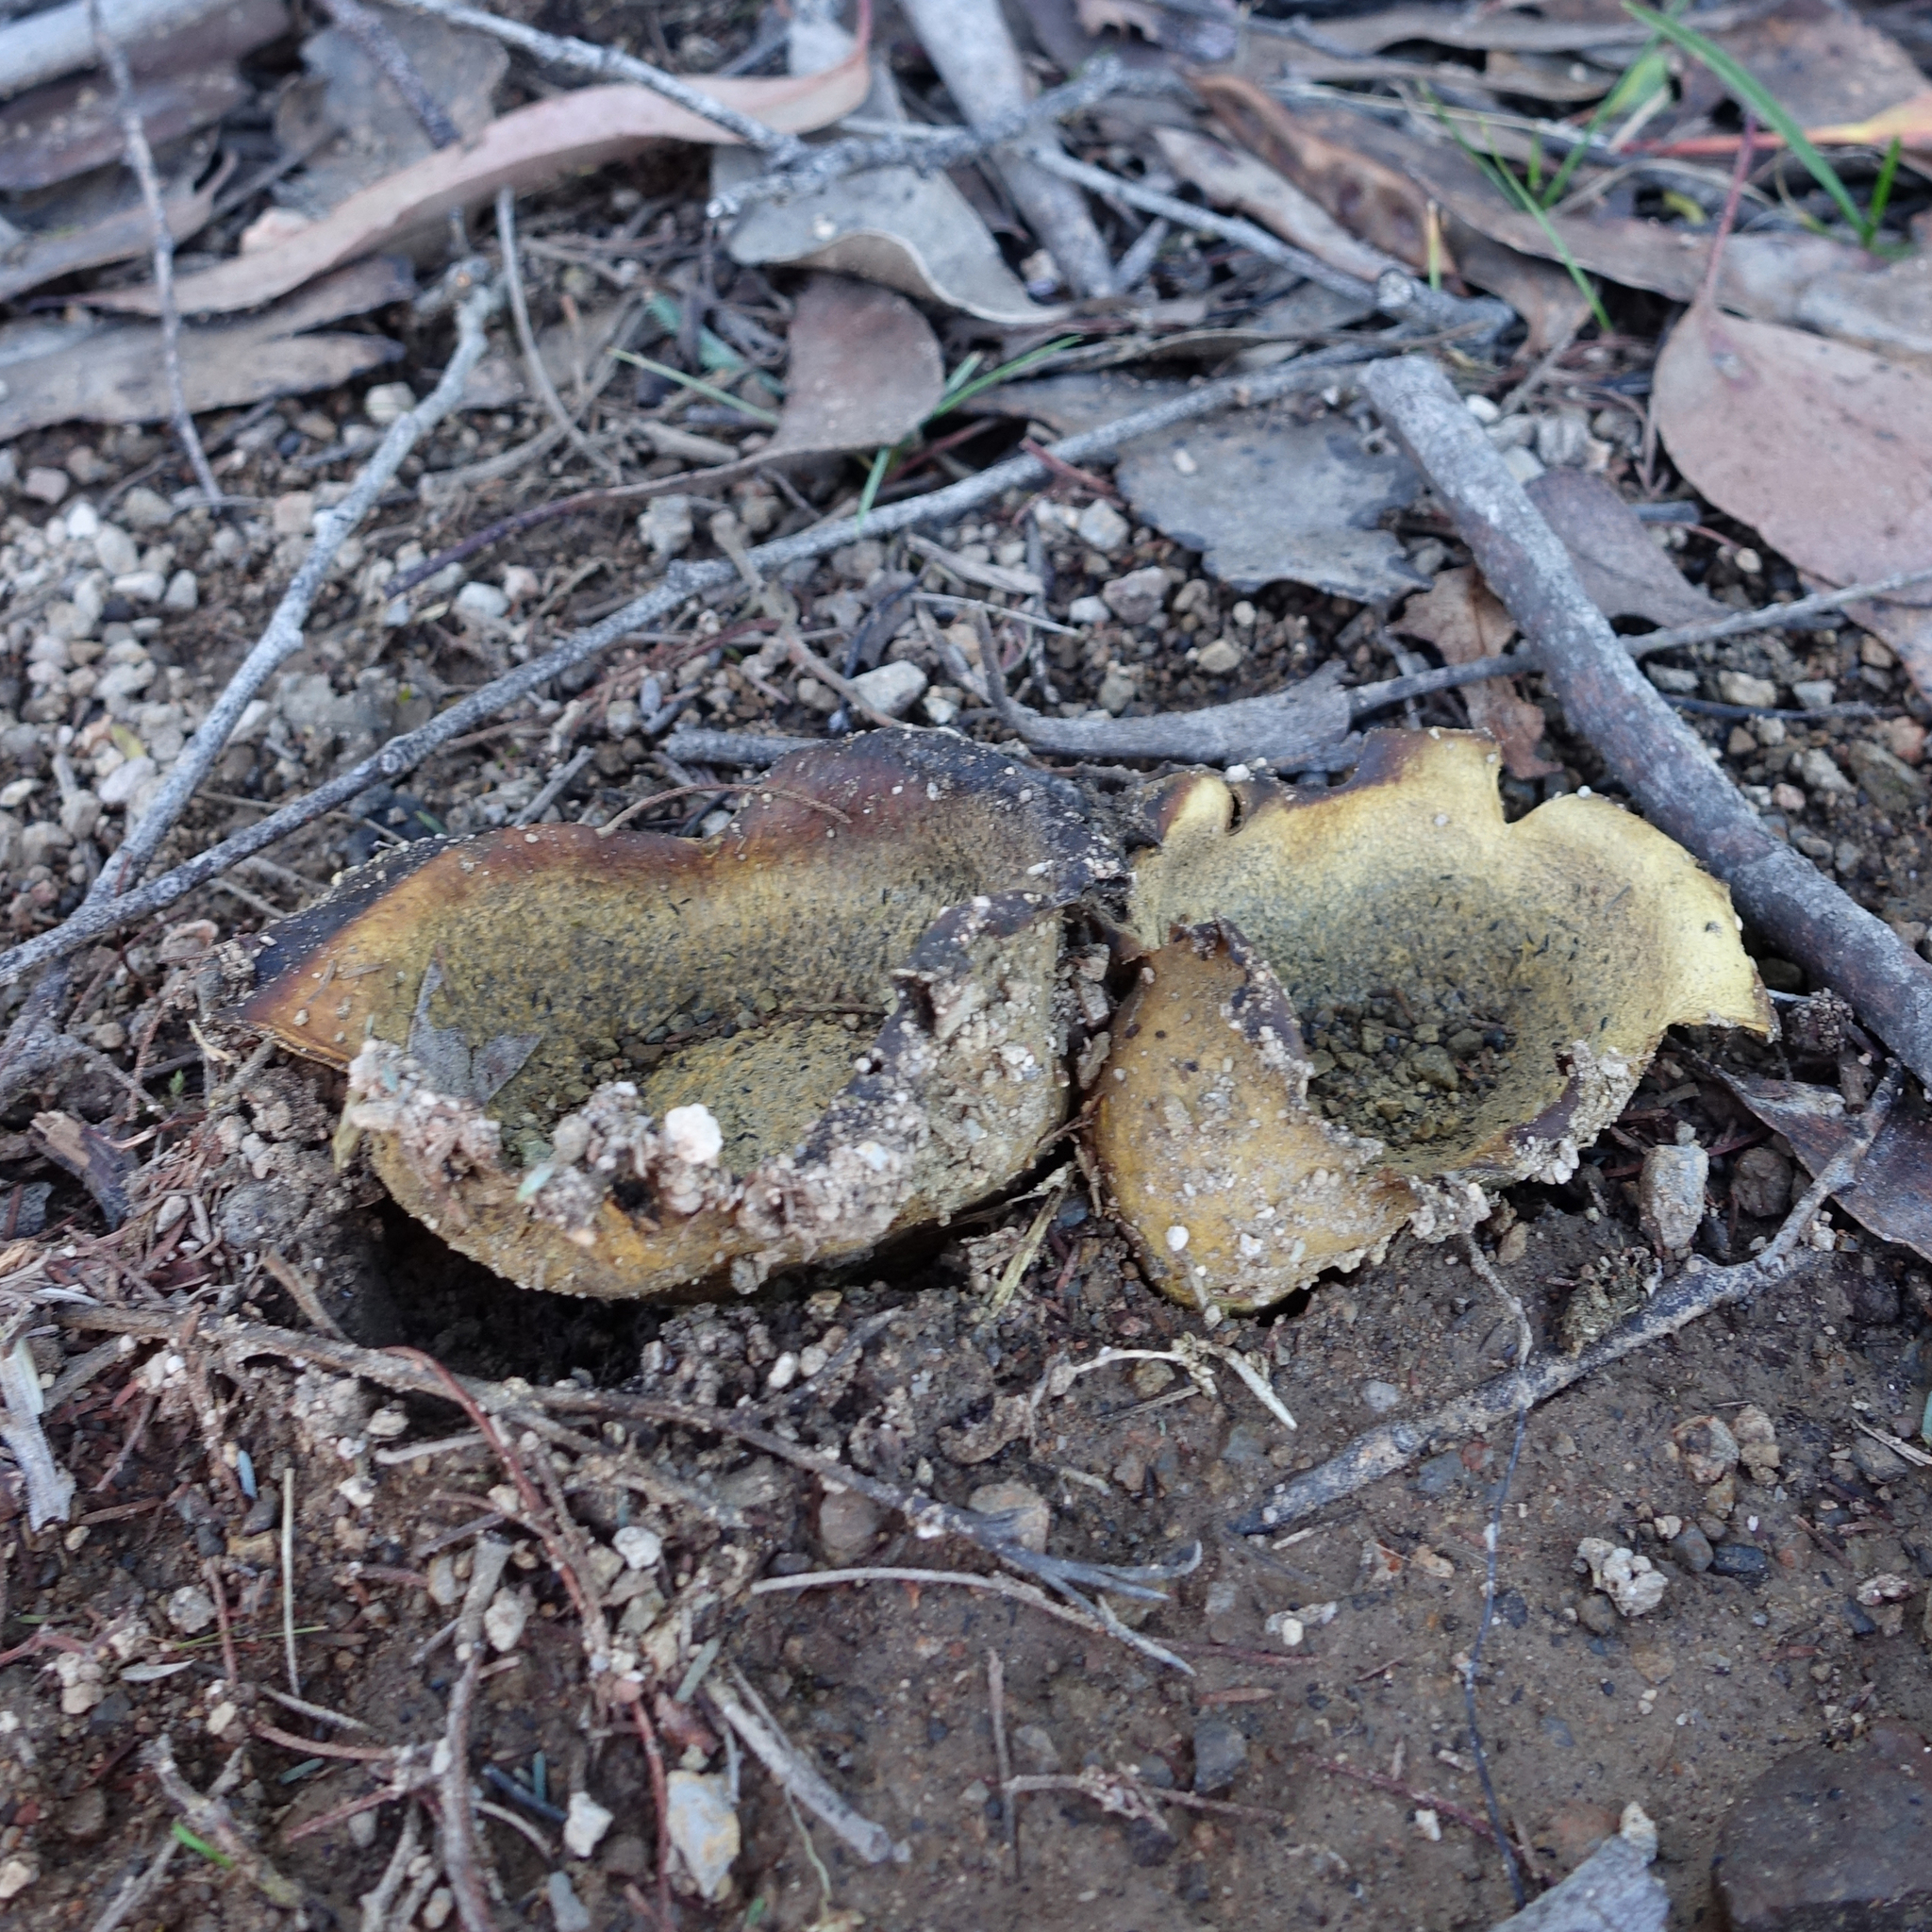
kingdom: Fungi
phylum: Basidiomycota
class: Agaricomycetes
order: Boletales
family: Sclerodermataceae
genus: Scleroderma
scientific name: Scleroderma cepa
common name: Onion earthball
